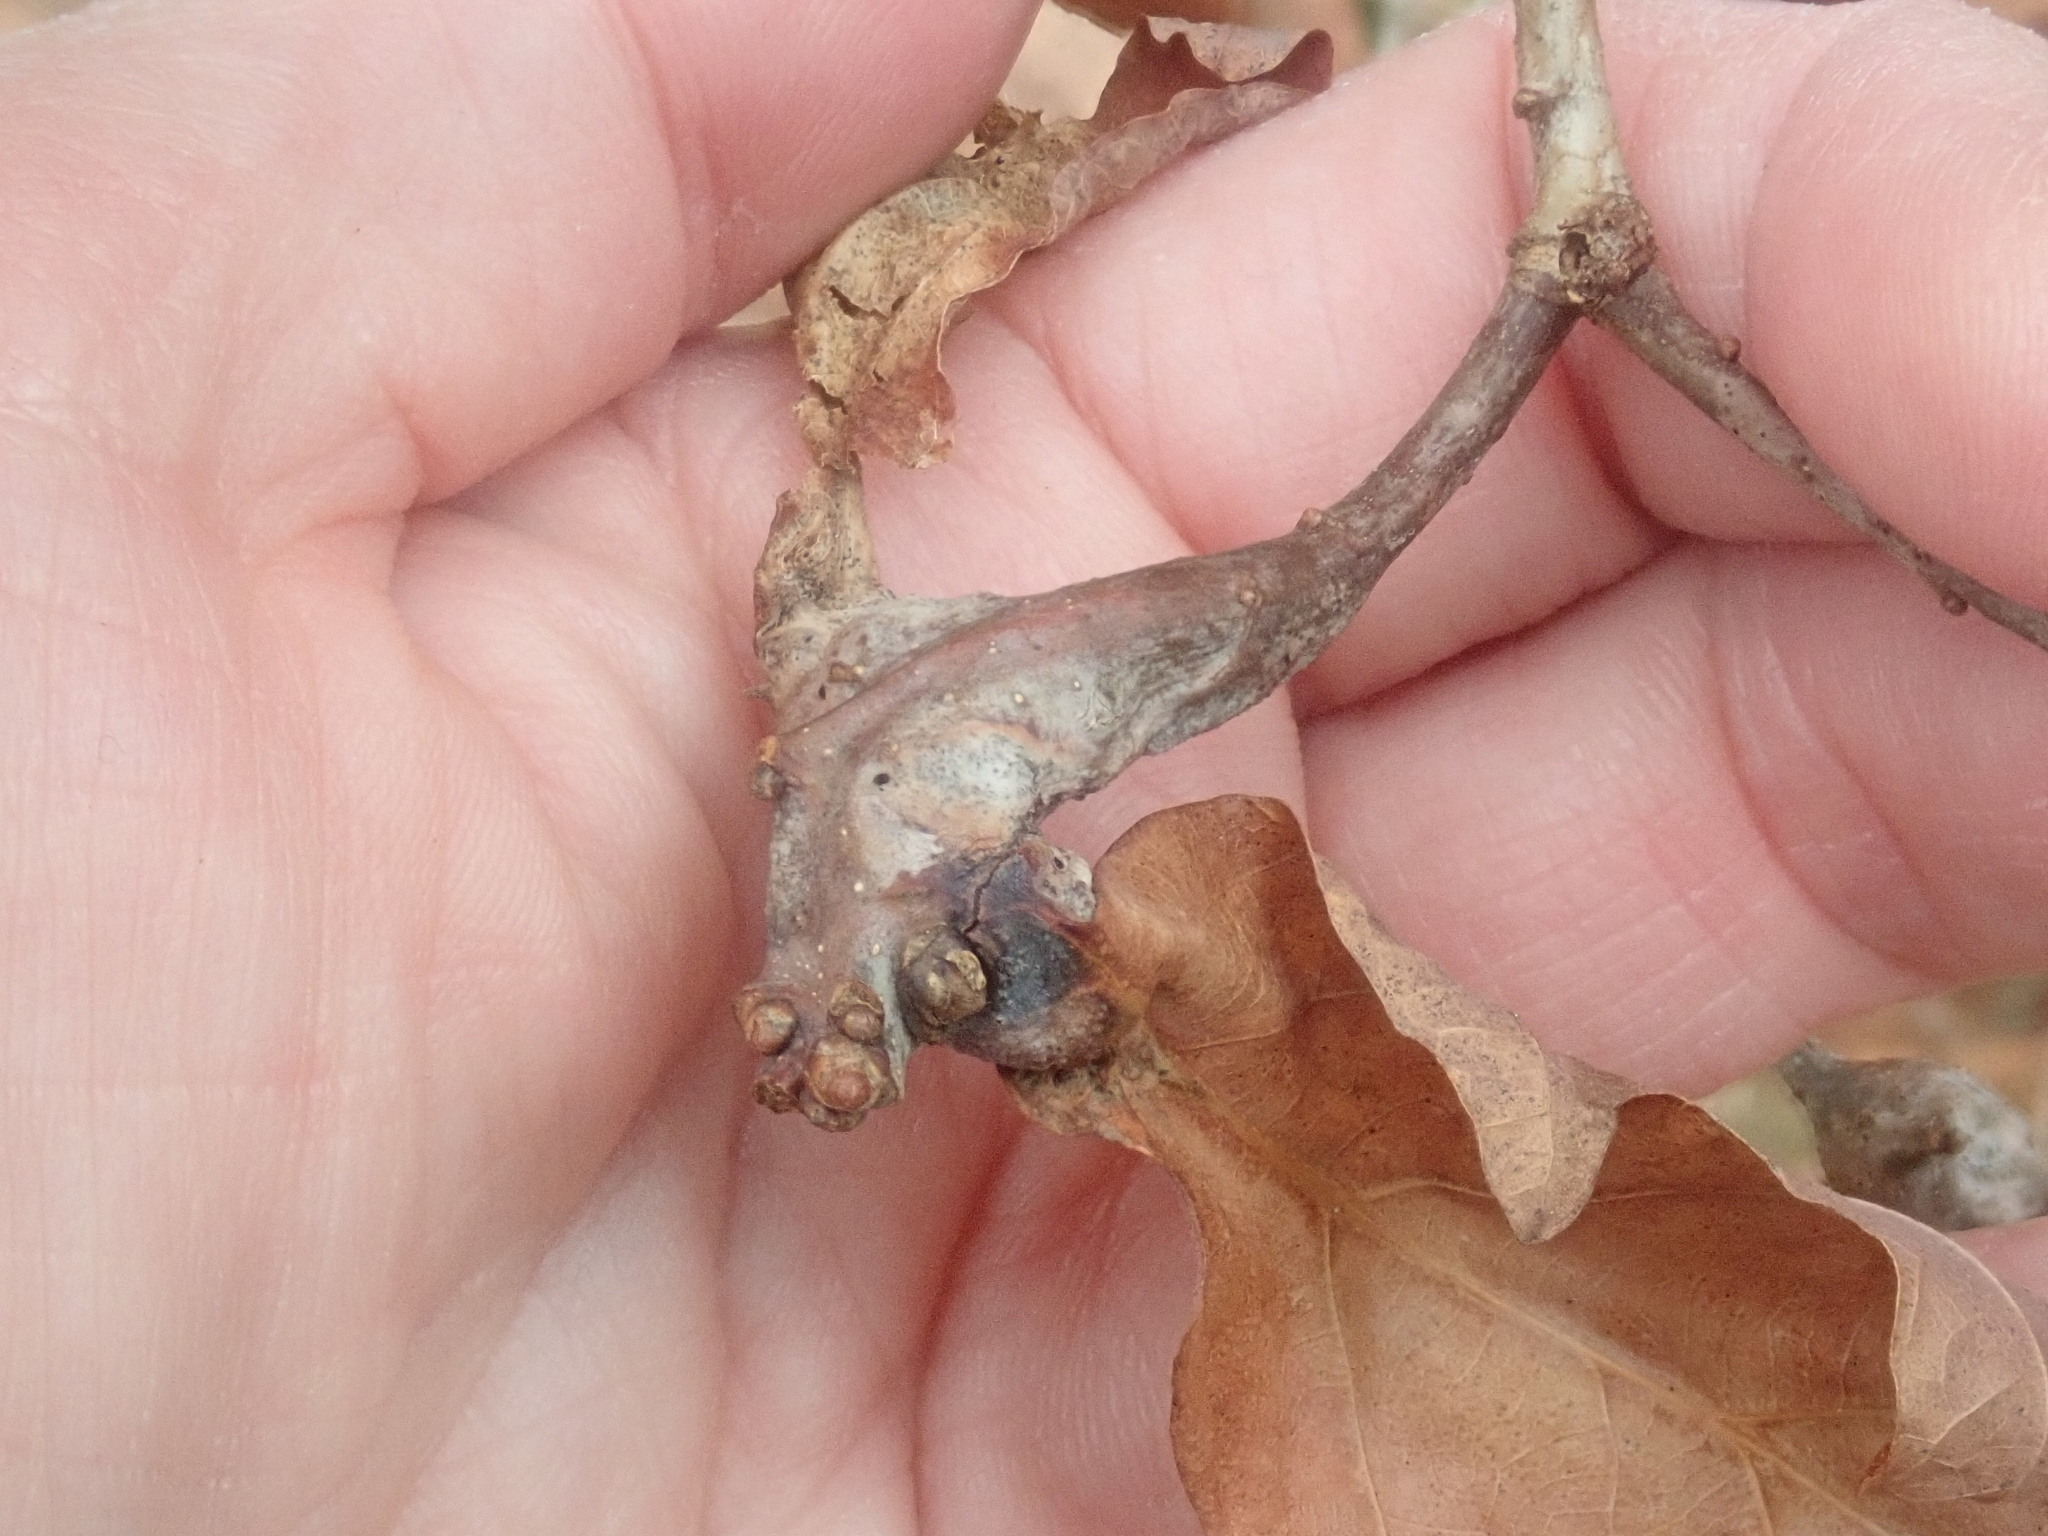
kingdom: Animalia
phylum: Arthropoda
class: Insecta
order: Hymenoptera
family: Cynipidae
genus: Neuroterus
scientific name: Neuroterus quercusbaccarum
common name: Common spangle gall
